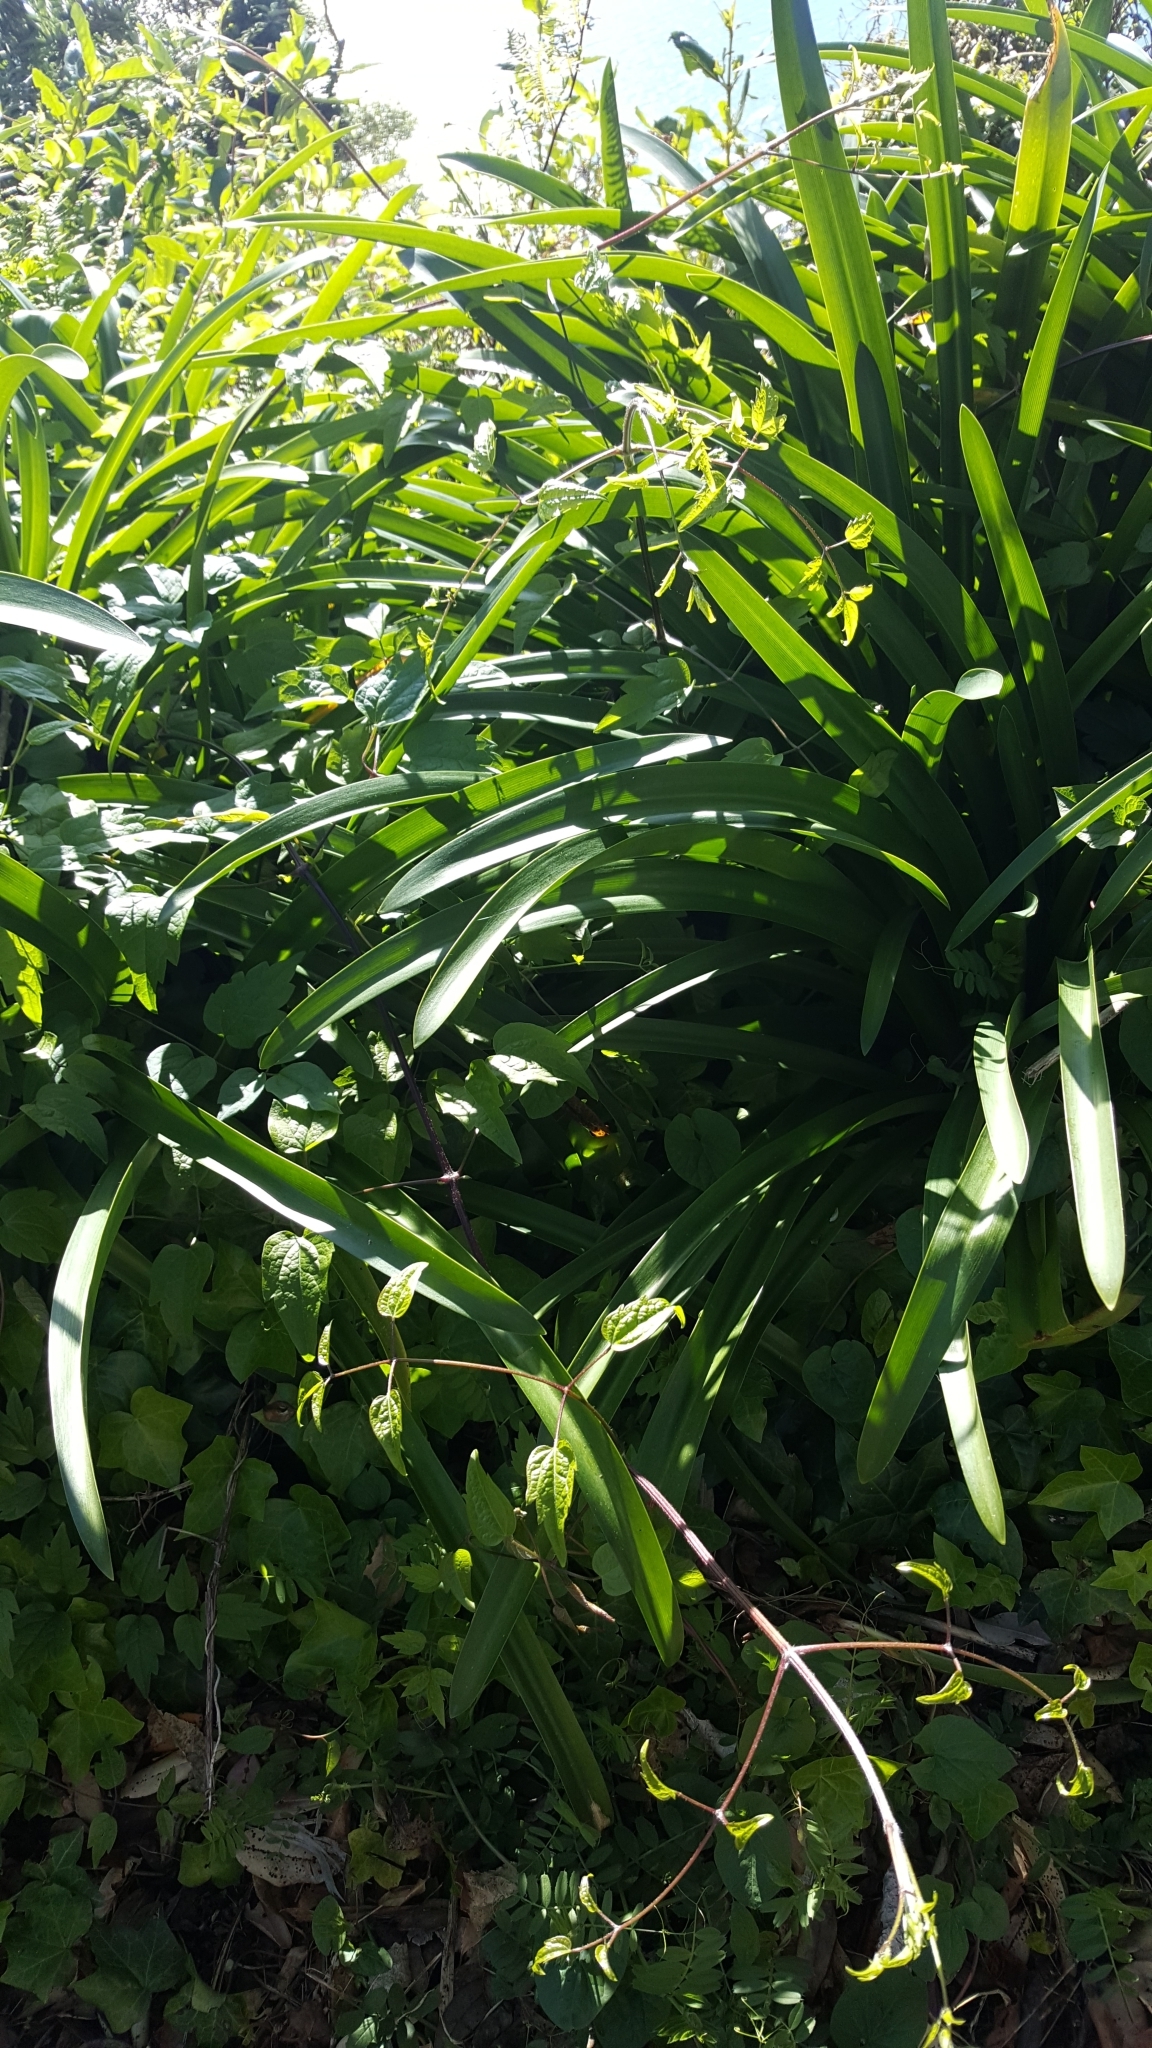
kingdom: Plantae
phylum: Tracheophyta
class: Magnoliopsida
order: Ranunculales
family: Ranunculaceae
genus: Clematis
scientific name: Clematis vitalba
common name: Evergreen clematis
